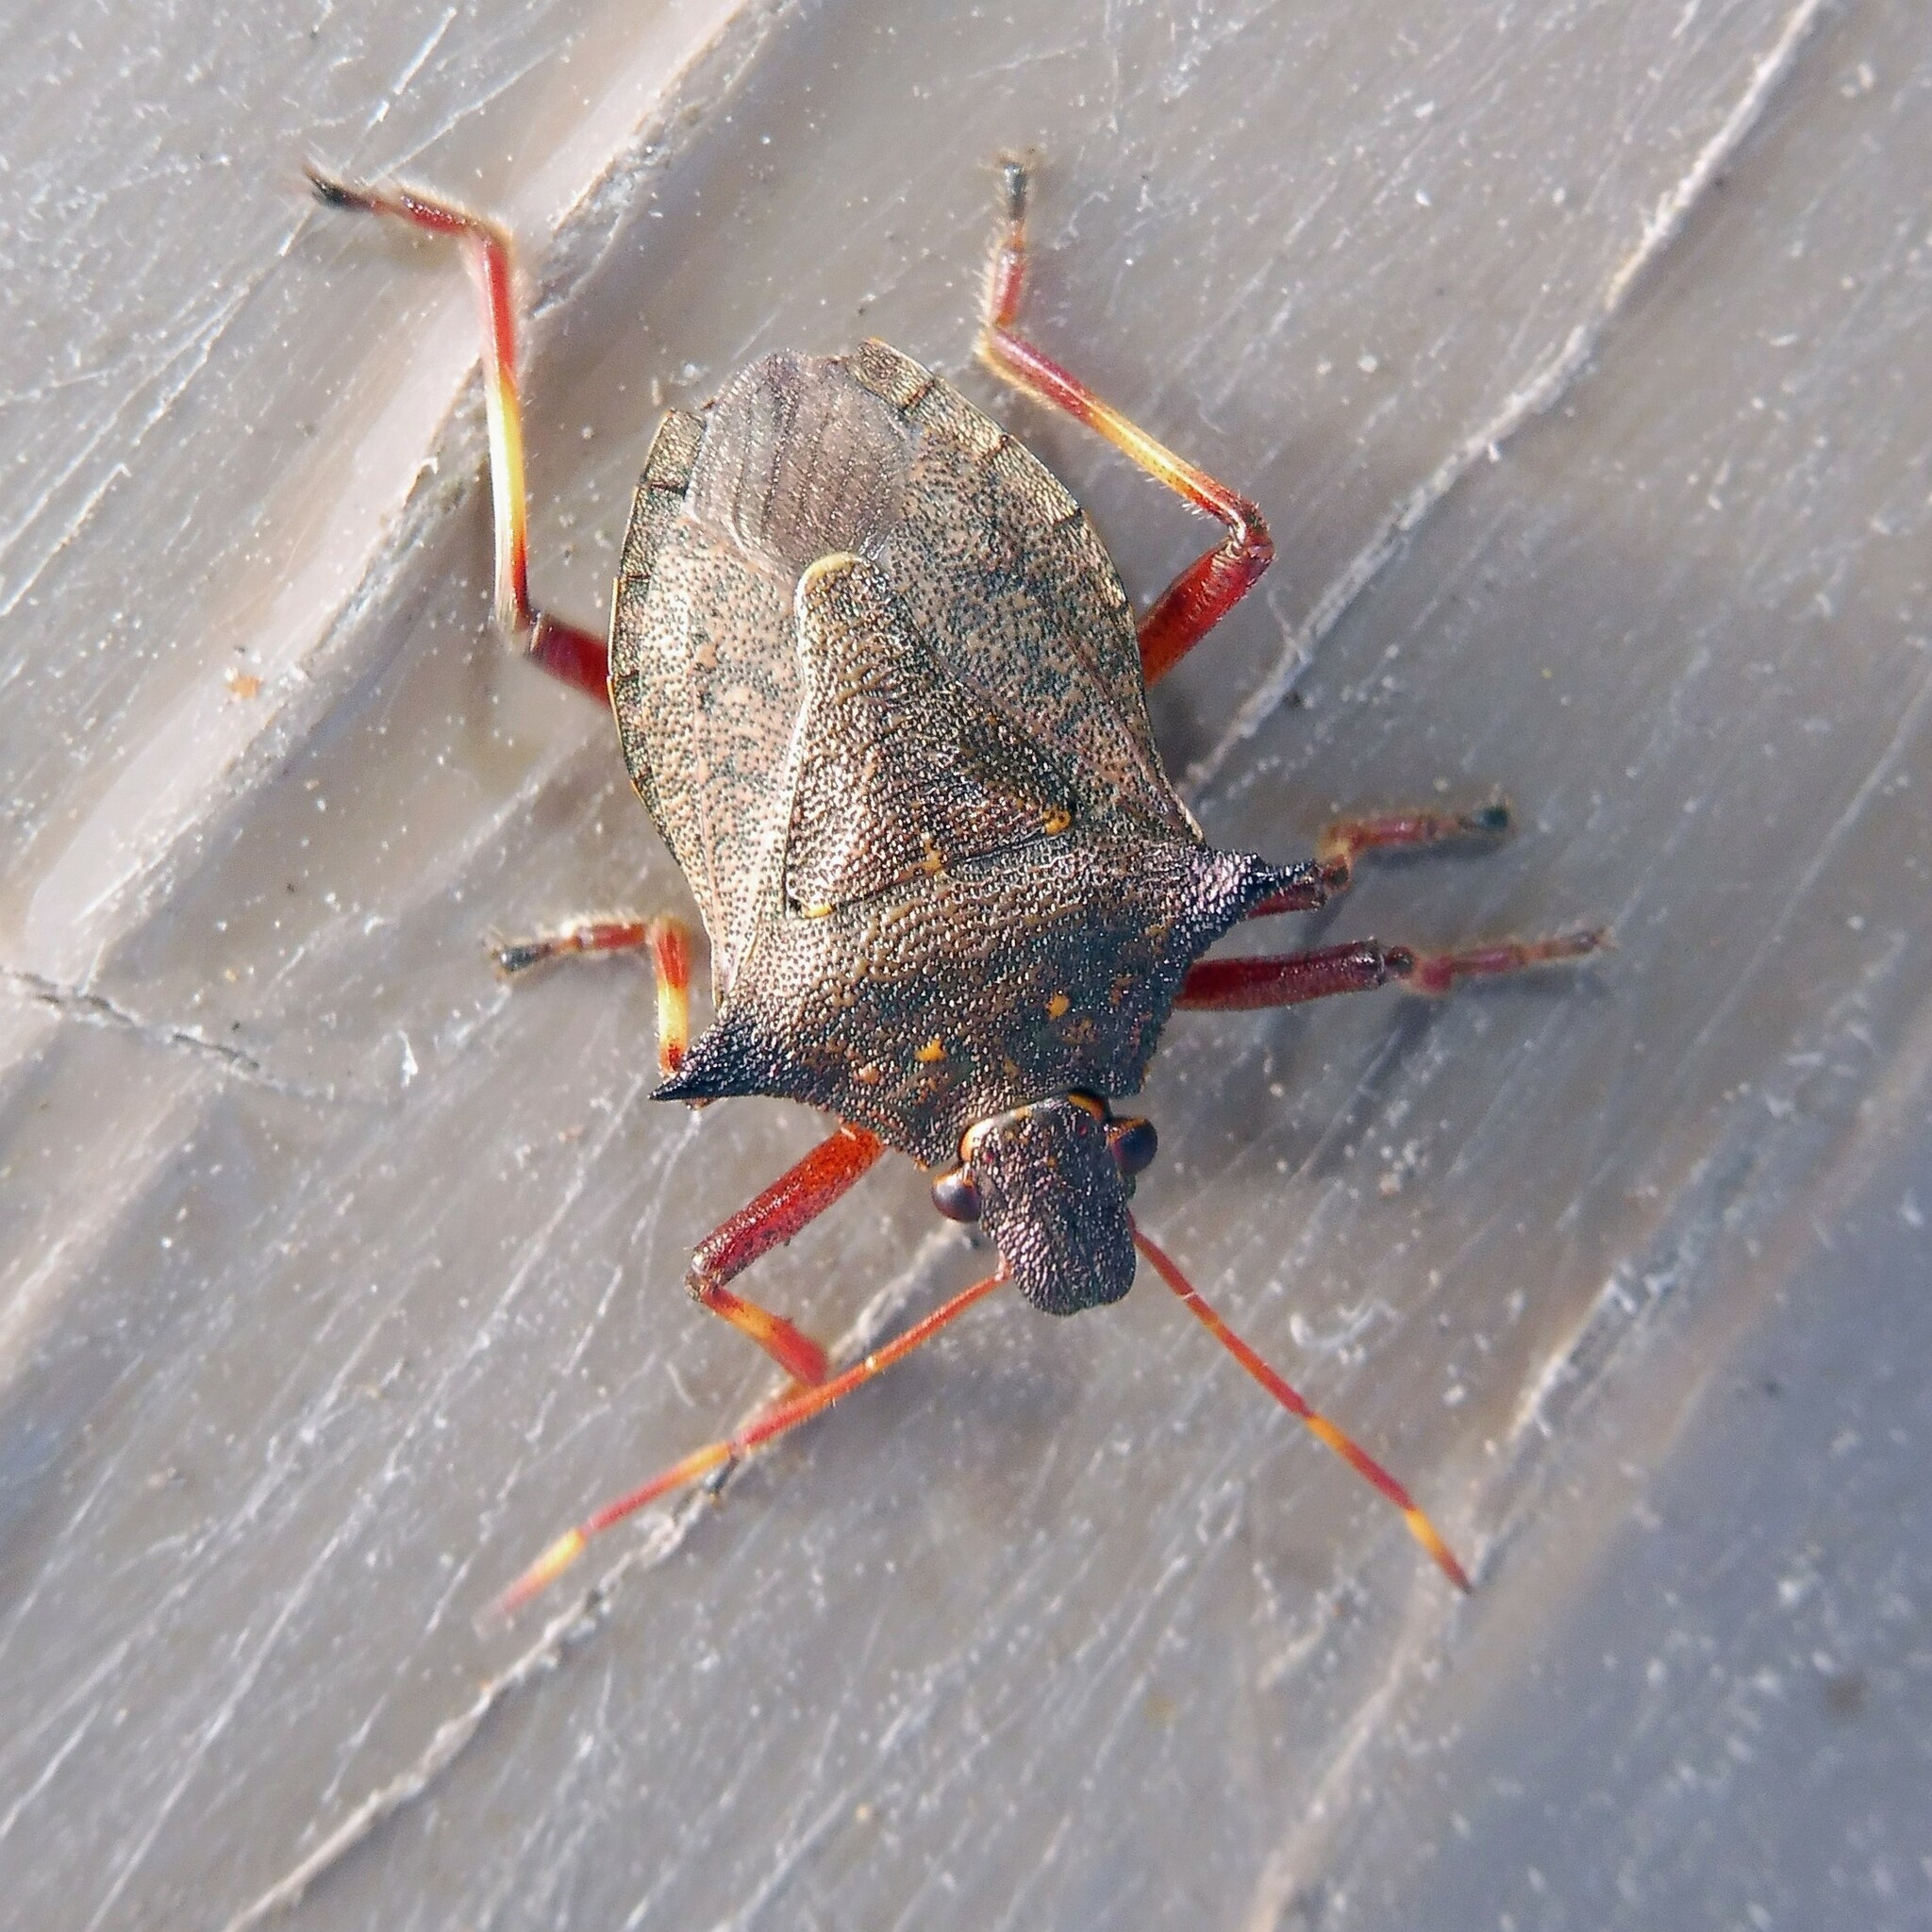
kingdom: Animalia
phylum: Arthropoda
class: Insecta
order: Hemiptera
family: Pentatomidae
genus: Picromerus
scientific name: Picromerus bidens
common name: Spiked shieldbug
